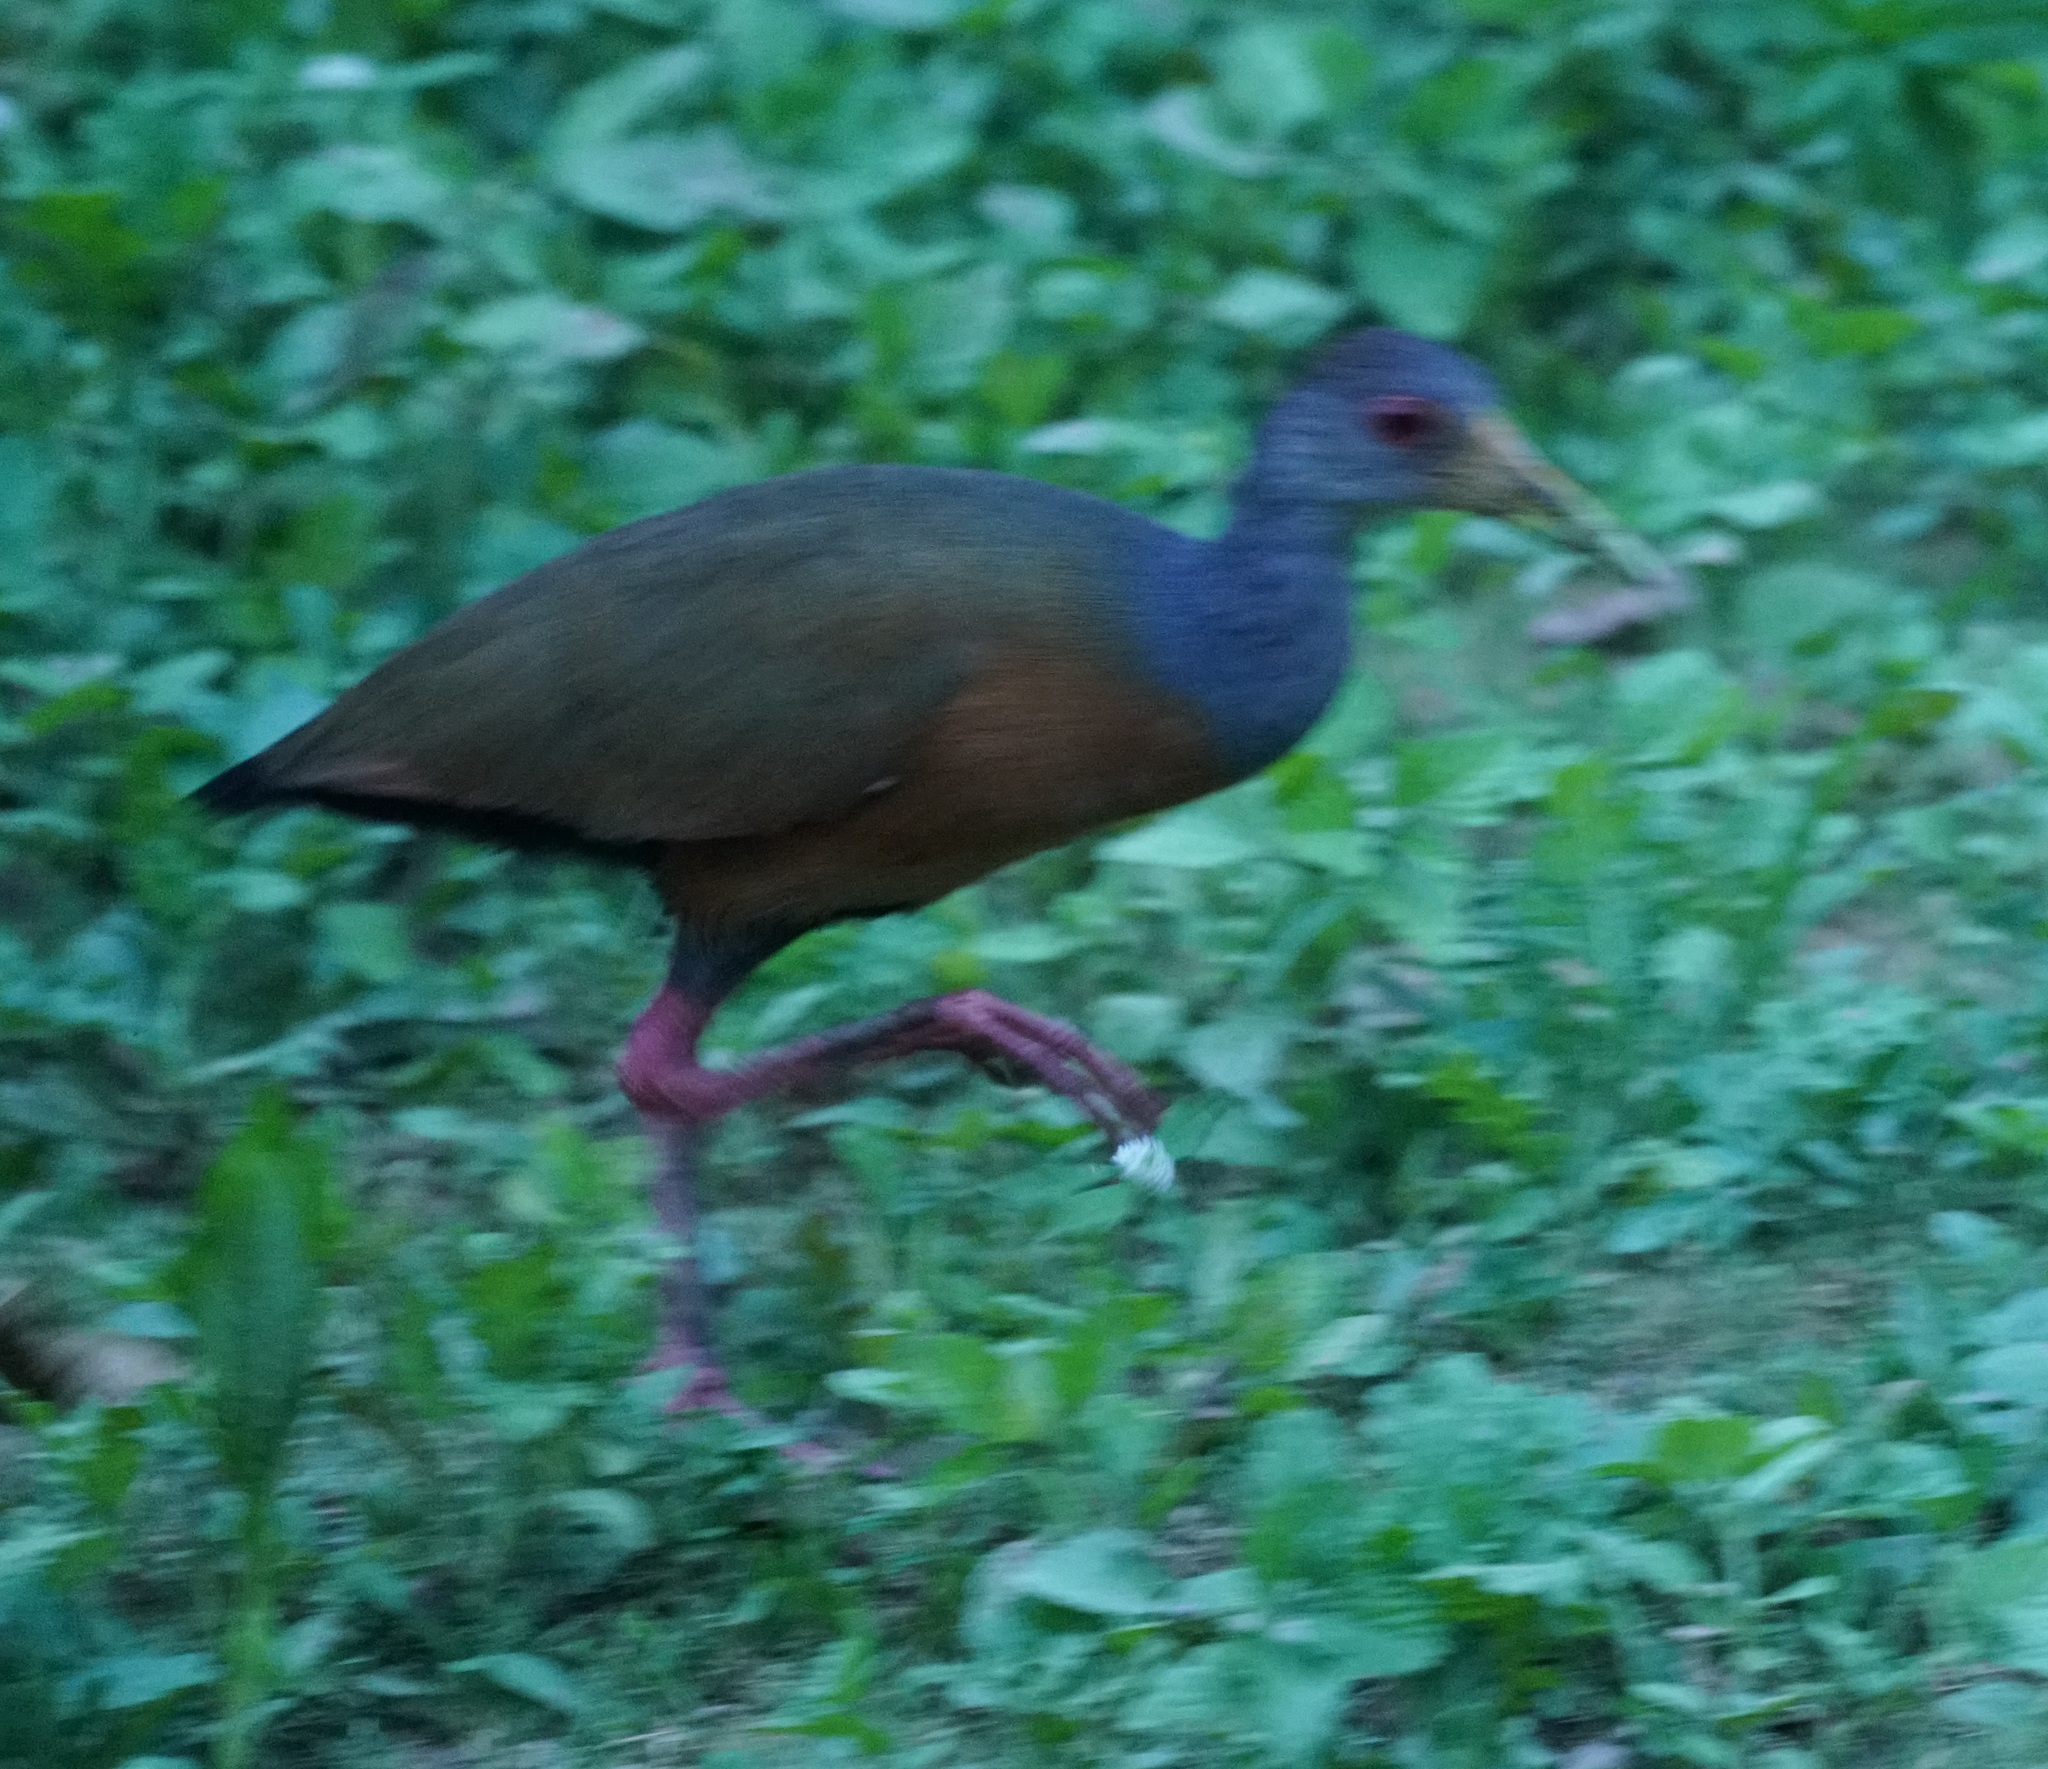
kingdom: Animalia
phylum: Chordata
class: Aves
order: Gruiformes
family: Rallidae
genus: Aramides
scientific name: Aramides cajanea
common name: Gray-necked wood-rail
